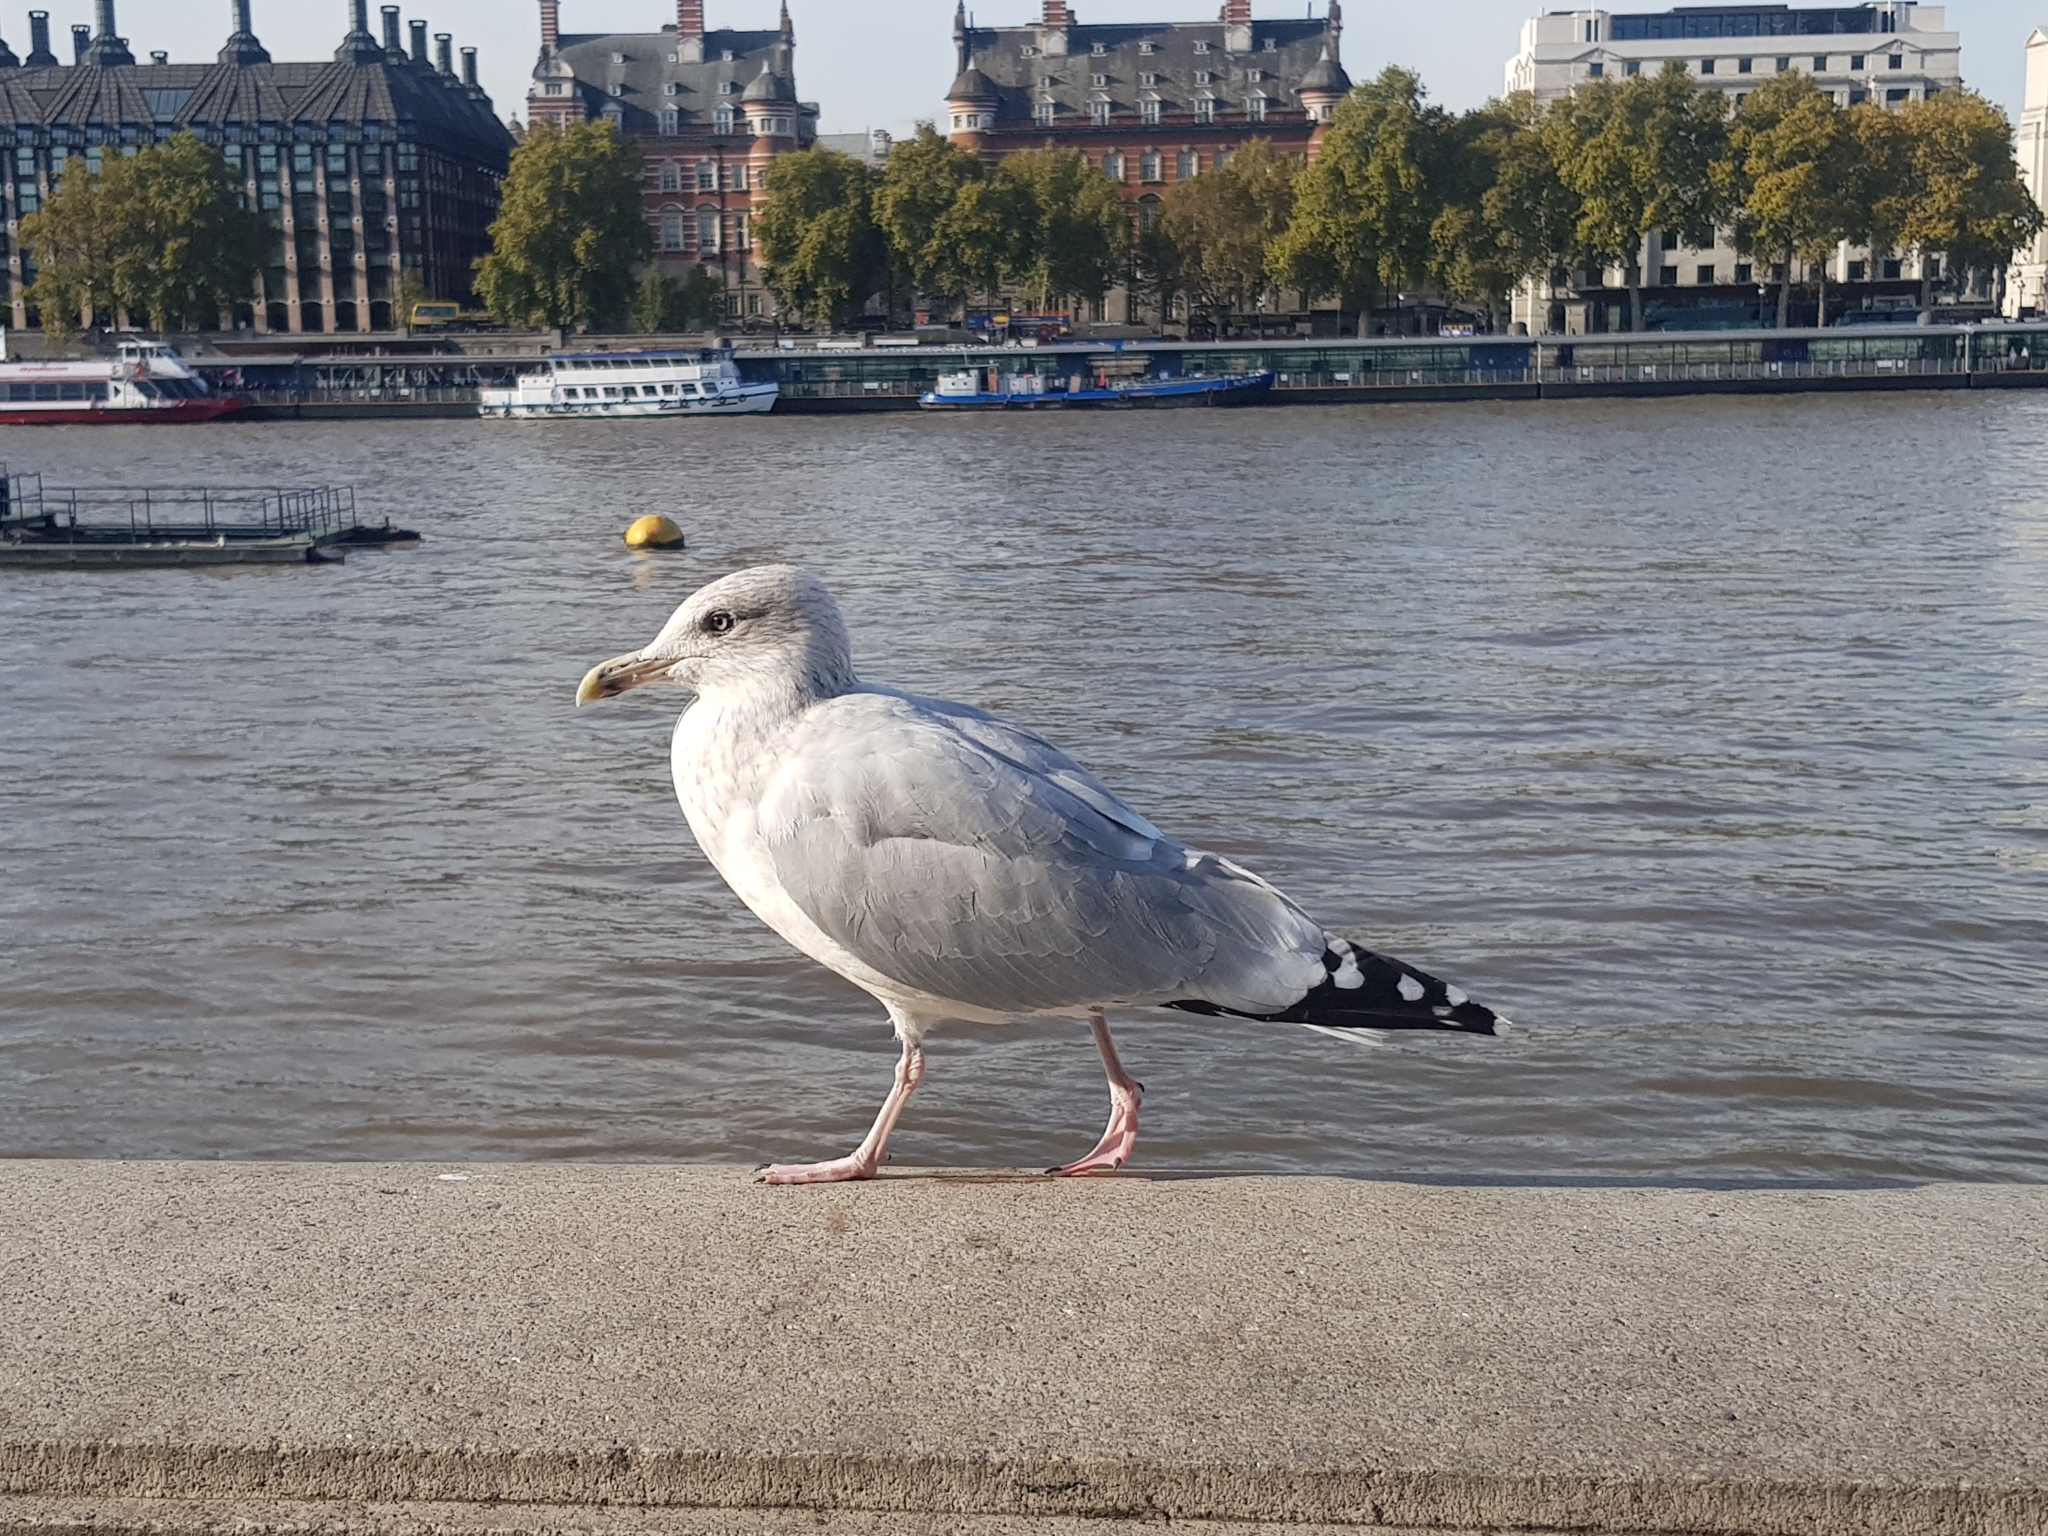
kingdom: Animalia
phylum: Chordata
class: Aves
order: Charadriiformes
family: Laridae
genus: Larus
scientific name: Larus argentatus
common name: Herring gull
